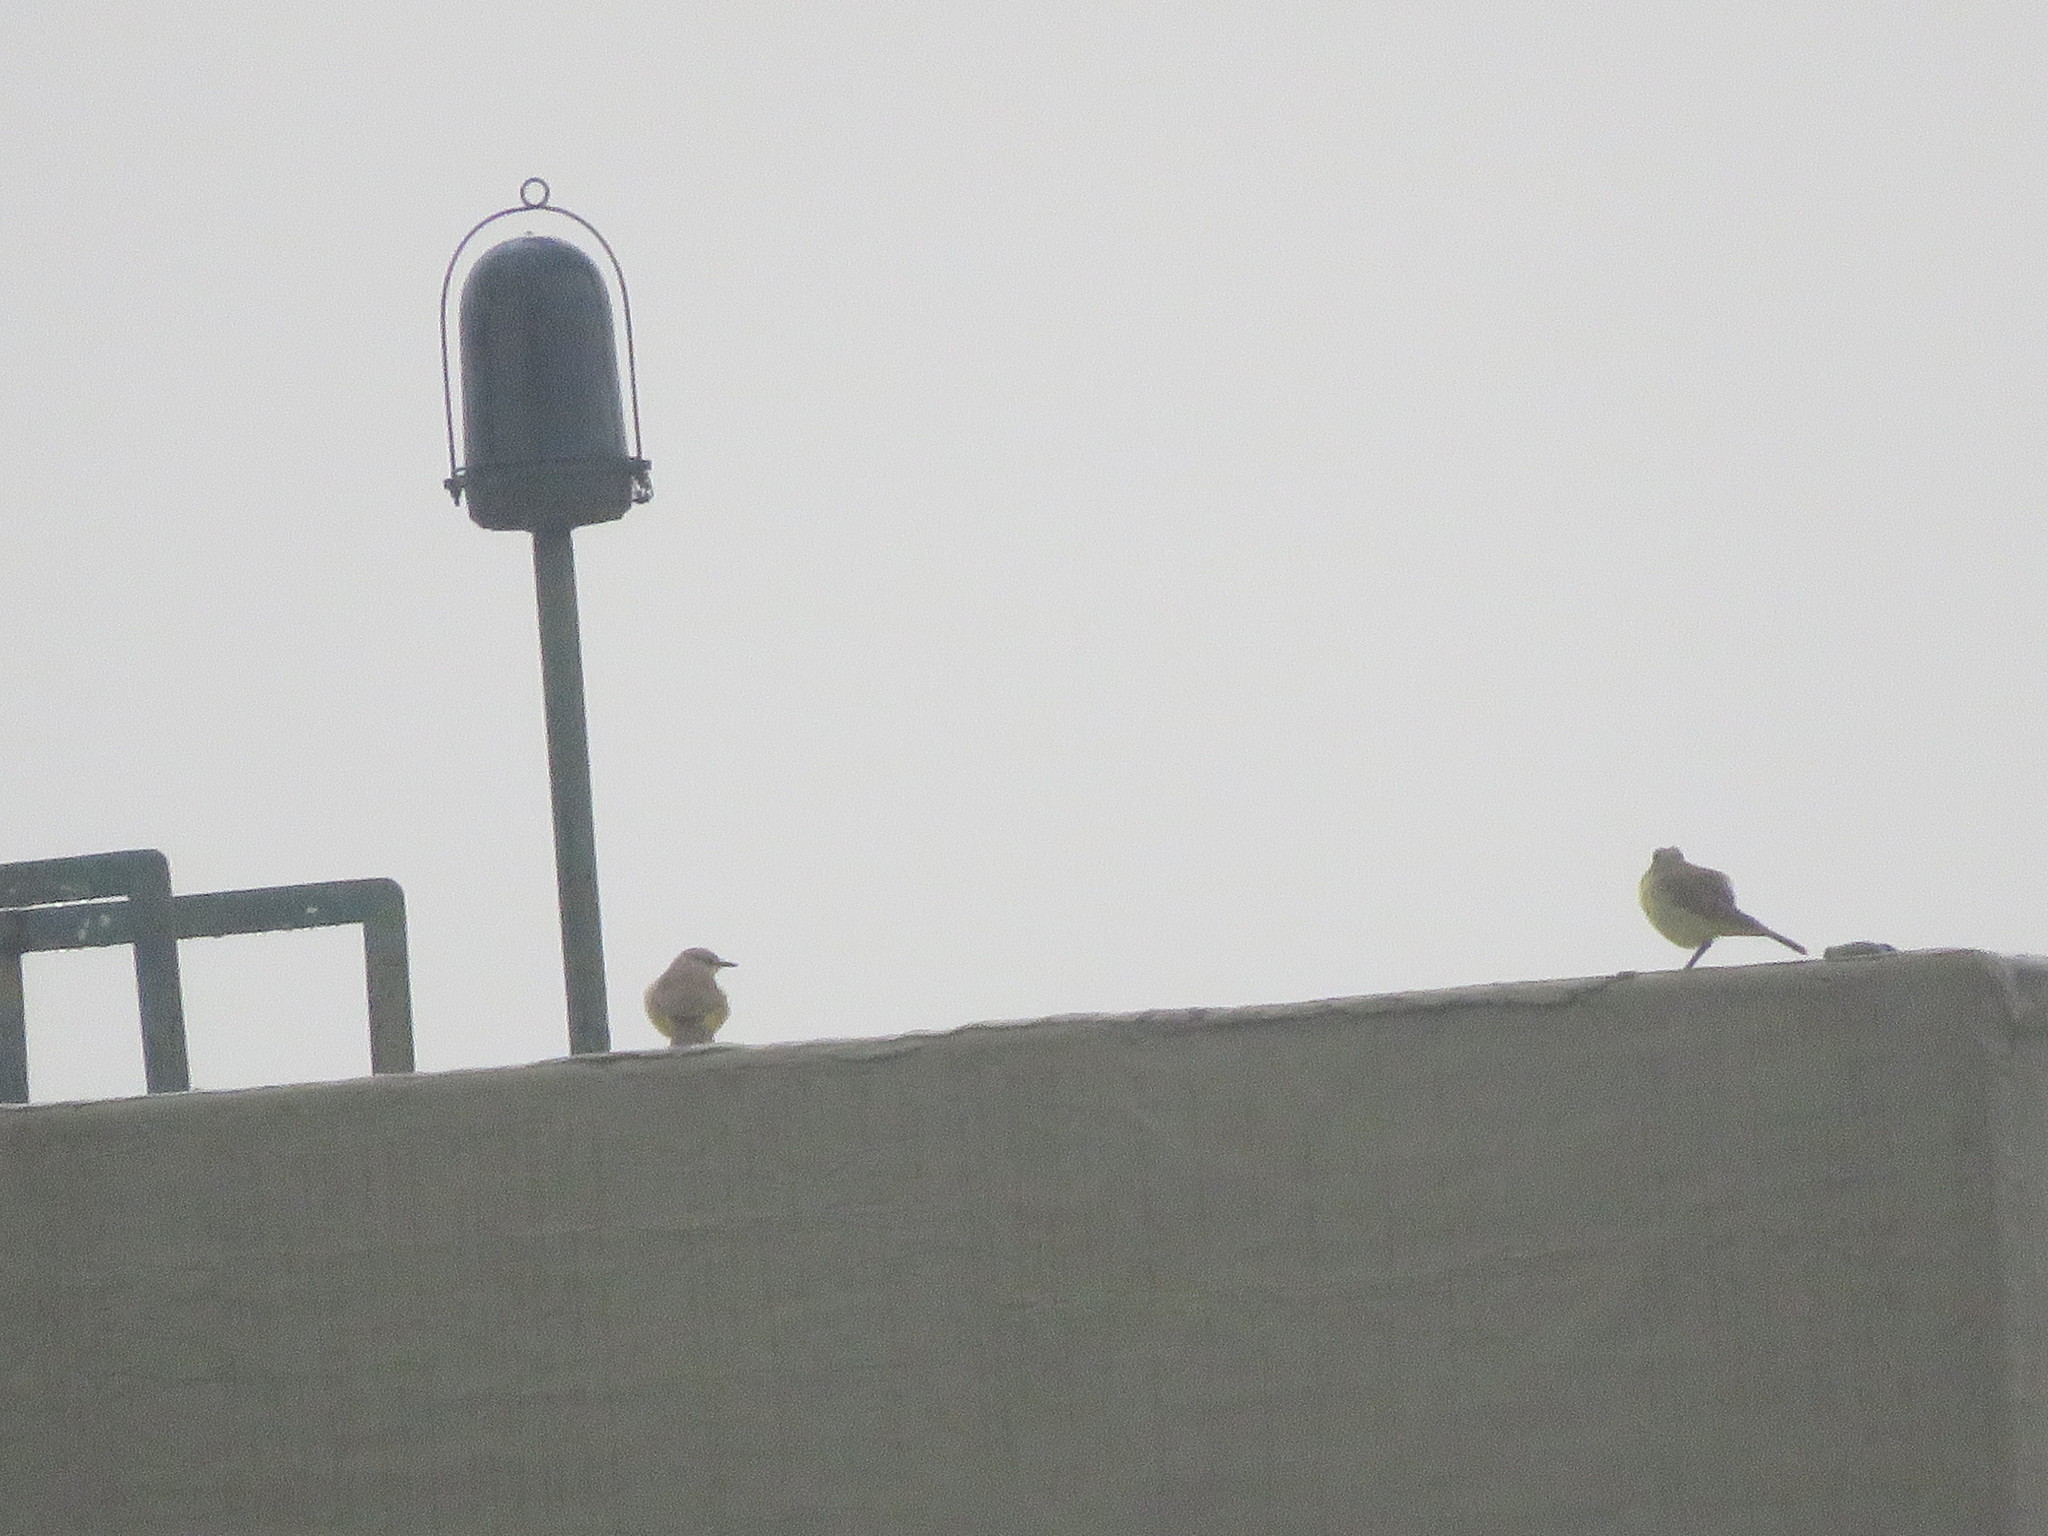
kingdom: Animalia
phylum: Chordata
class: Aves
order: Passeriformes
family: Tyrannidae
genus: Machetornis
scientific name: Machetornis rixosa
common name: Cattle tyrant
